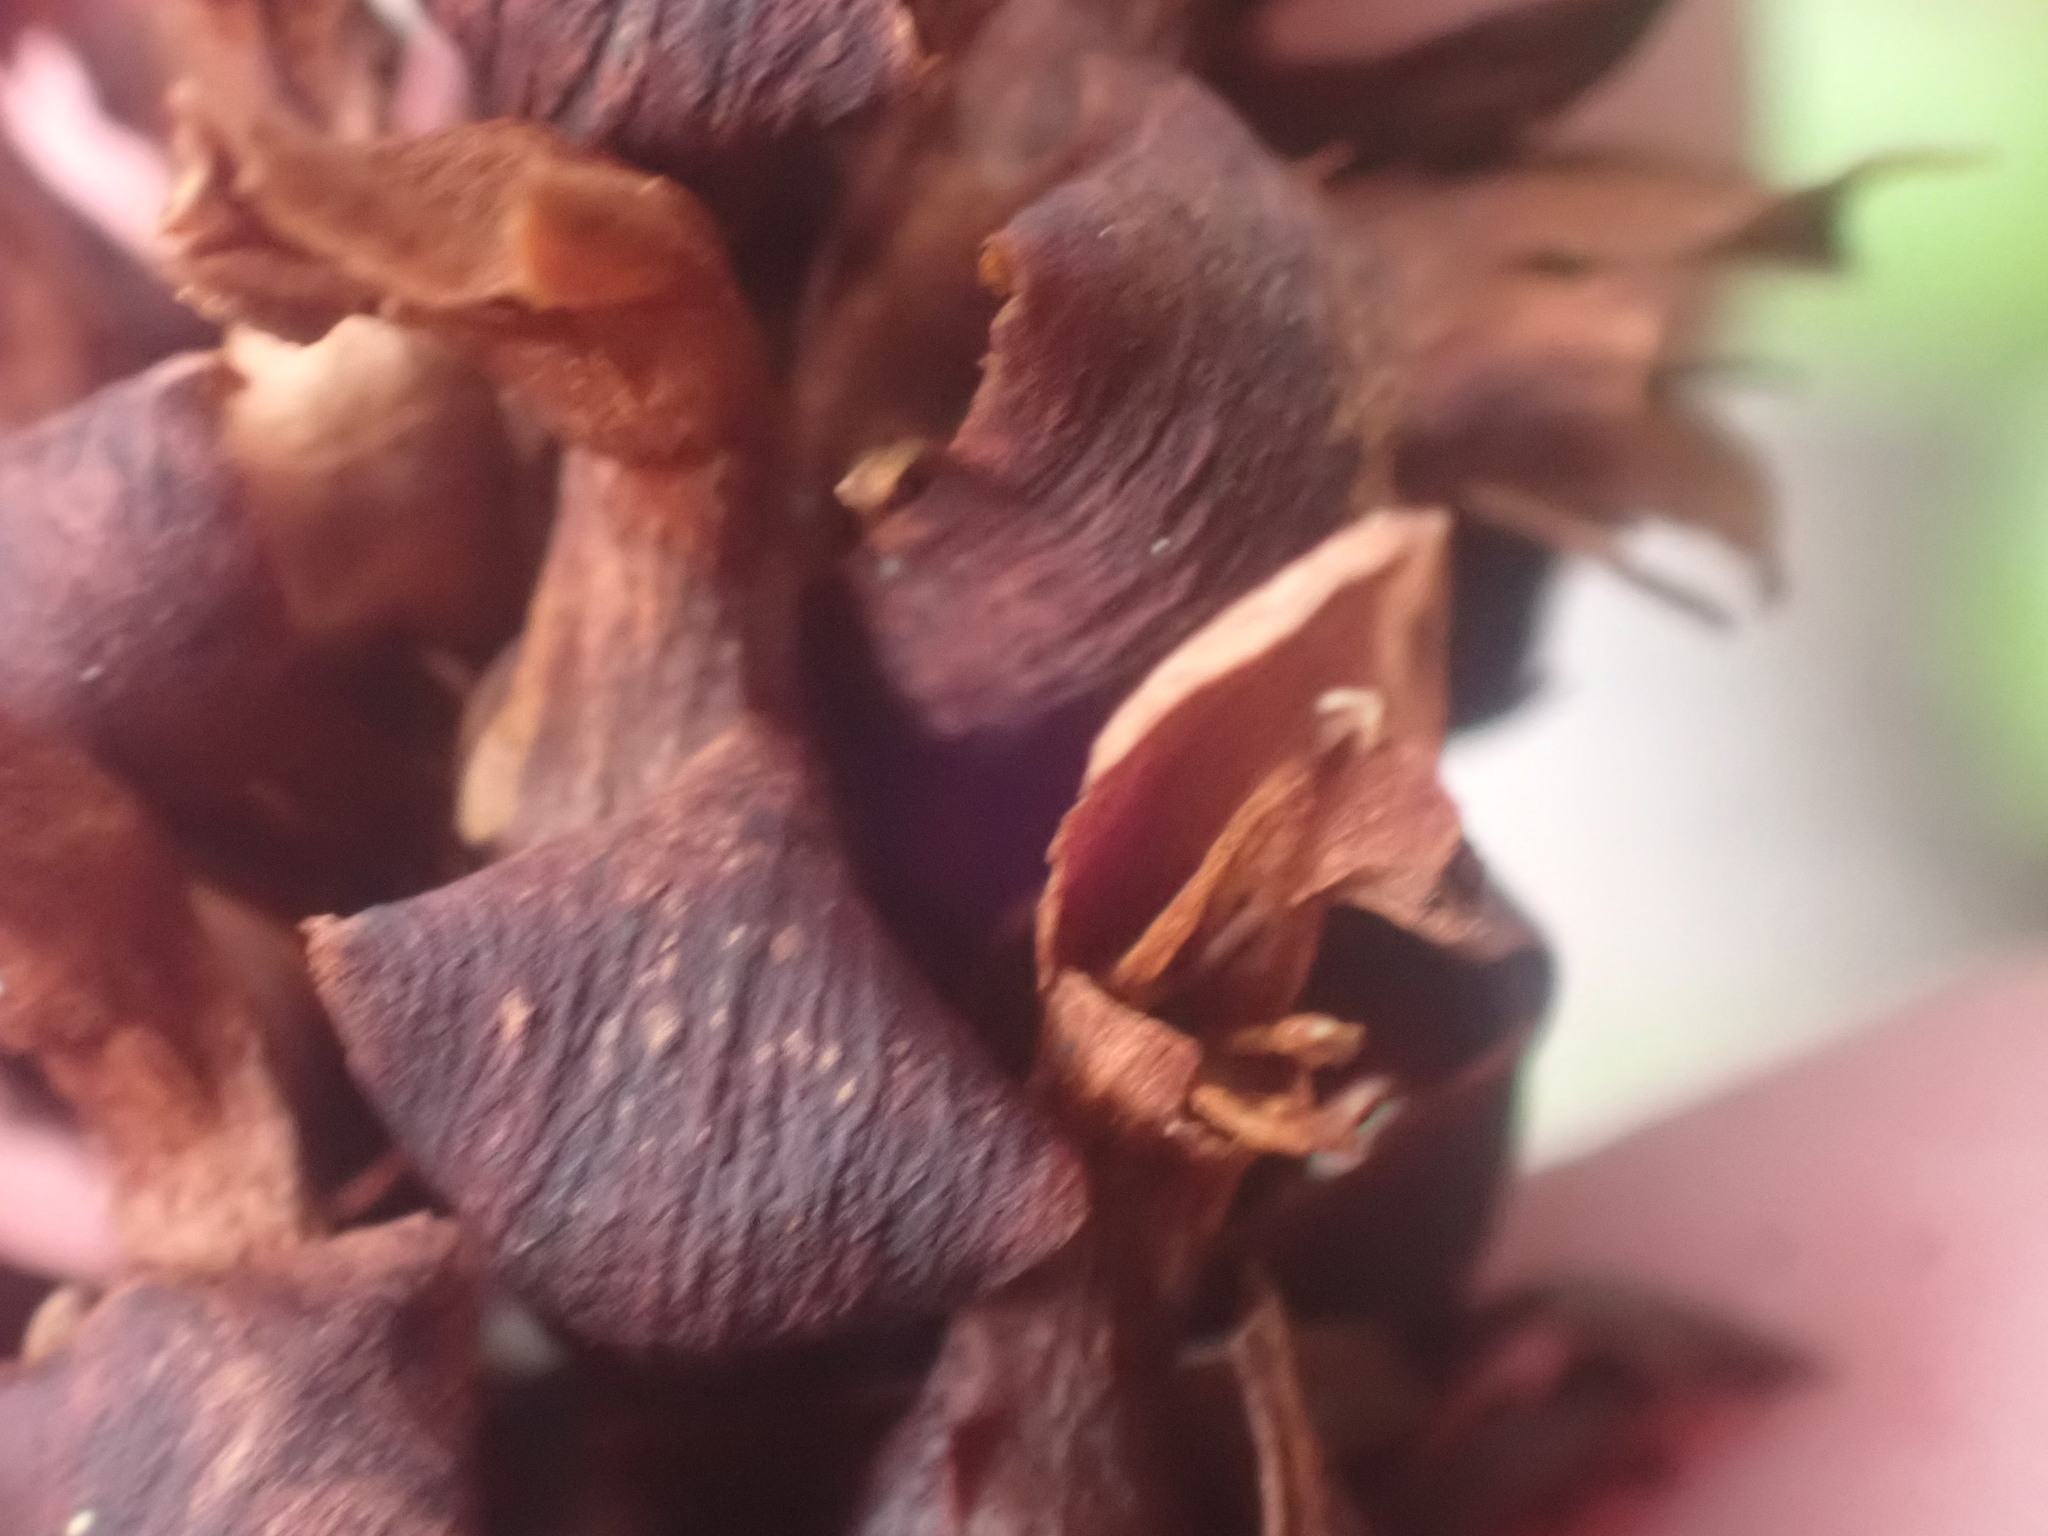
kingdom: Plantae
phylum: Tracheophyta
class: Magnoliopsida
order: Lamiales
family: Orobanchaceae
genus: Kopsiopsis
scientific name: Kopsiopsis hookeri
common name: Hooker's groundcone
